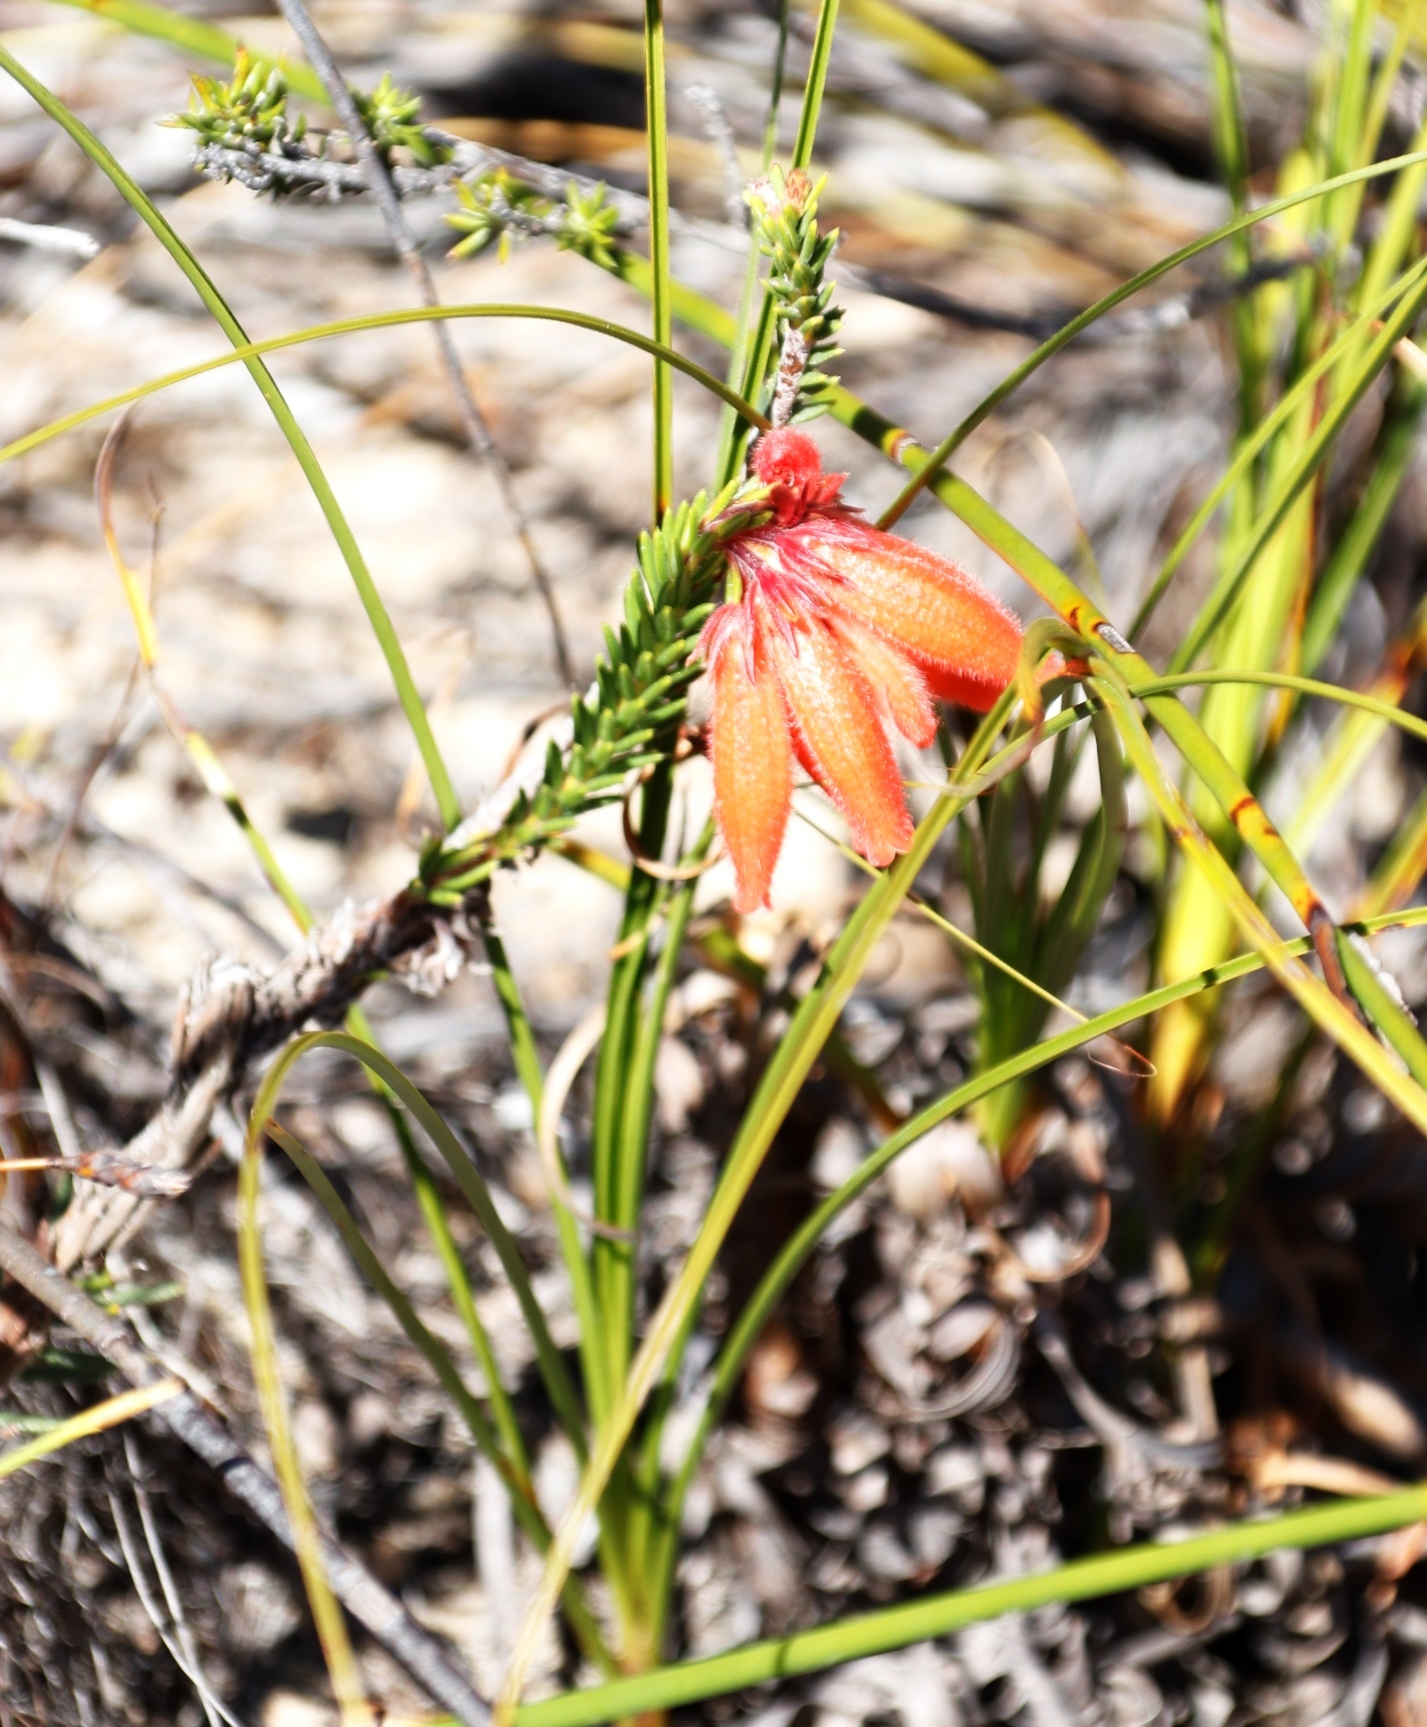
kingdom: Plantae
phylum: Tracheophyta
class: Magnoliopsida
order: Ericales
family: Ericaceae
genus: Erica
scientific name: Erica cerinthoides
